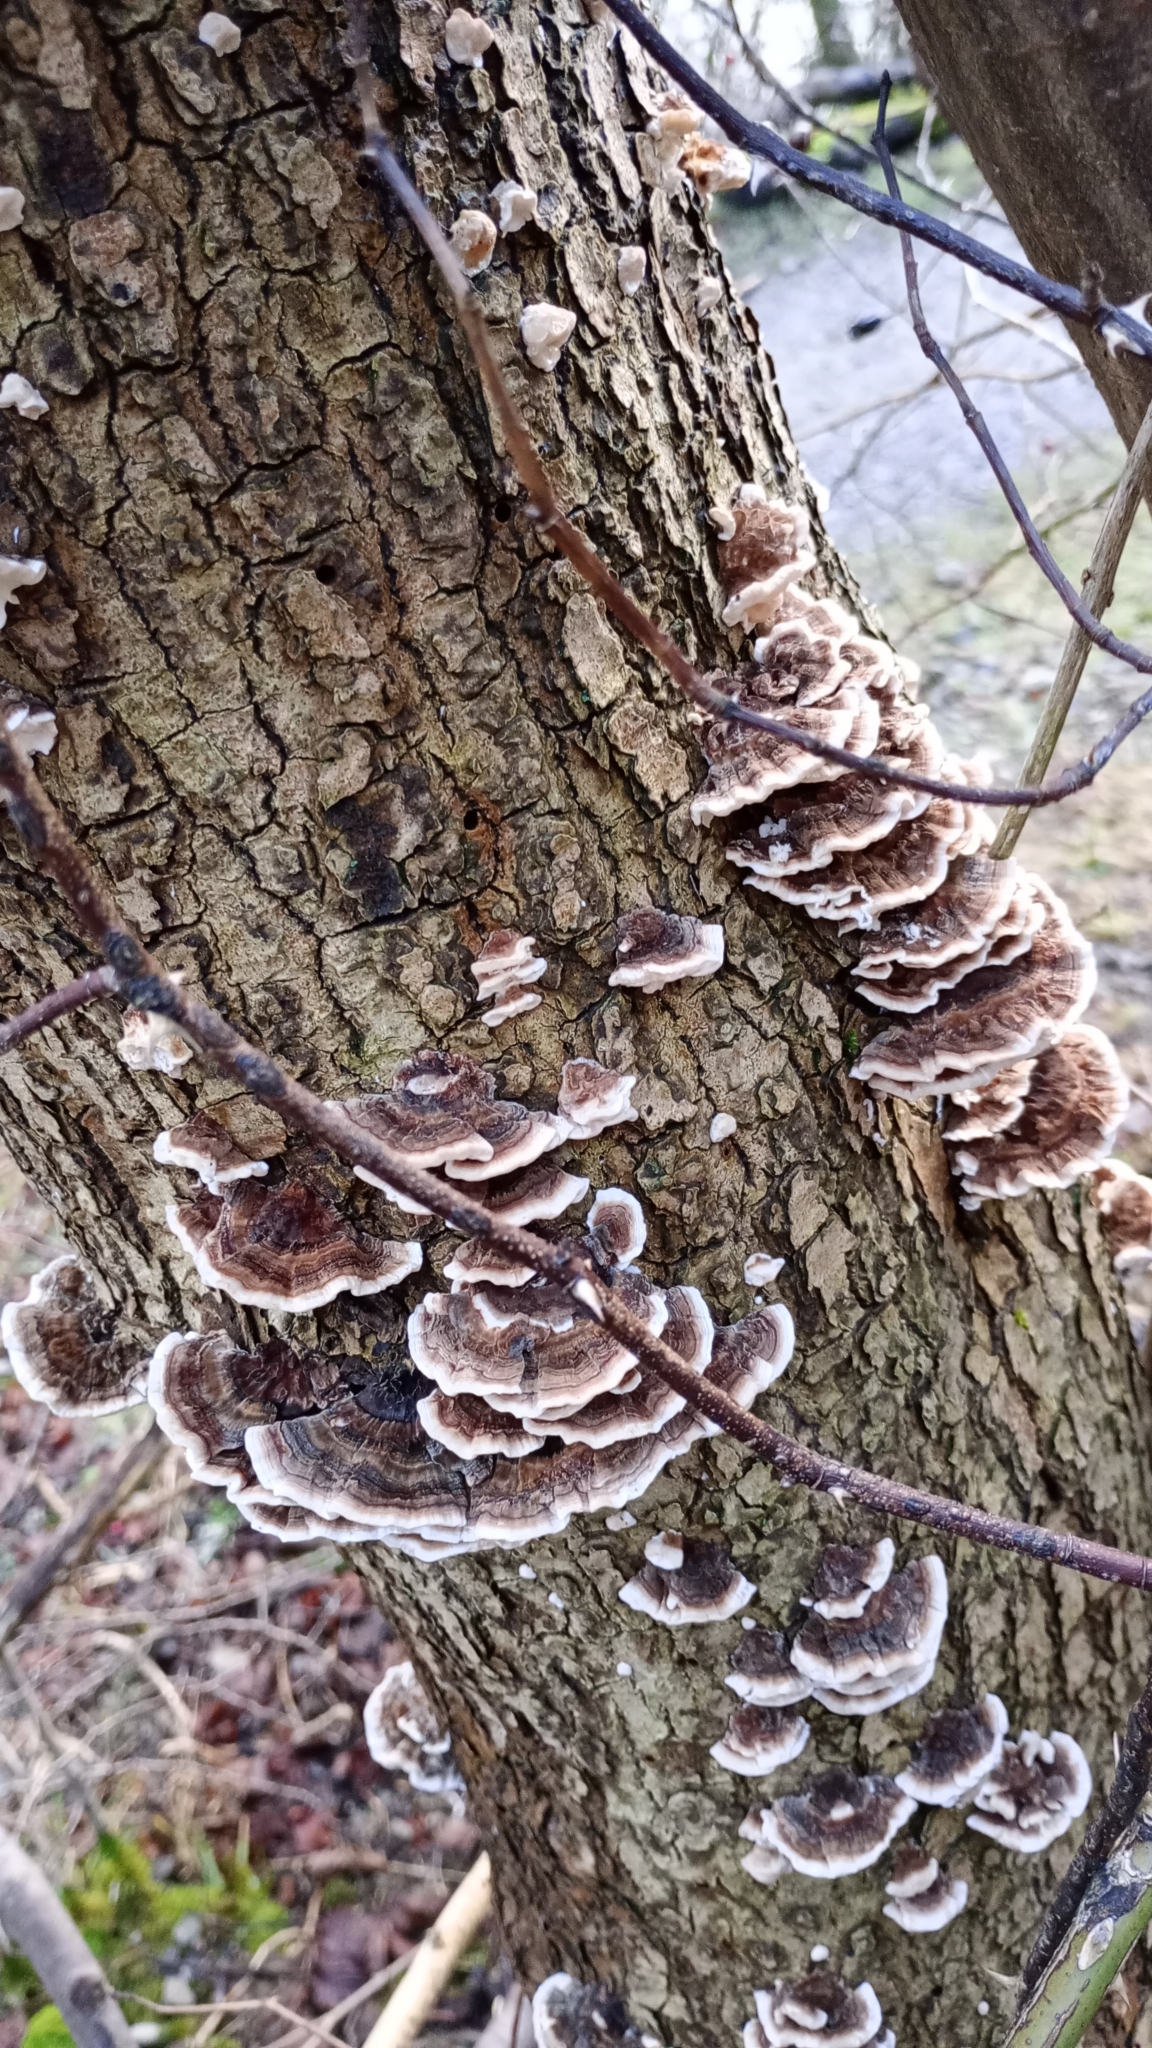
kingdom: Fungi
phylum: Basidiomycota
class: Agaricomycetes
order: Polyporales
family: Polyporaceae
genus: Trametes
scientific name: Trametes versicolor
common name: Turkeytail
